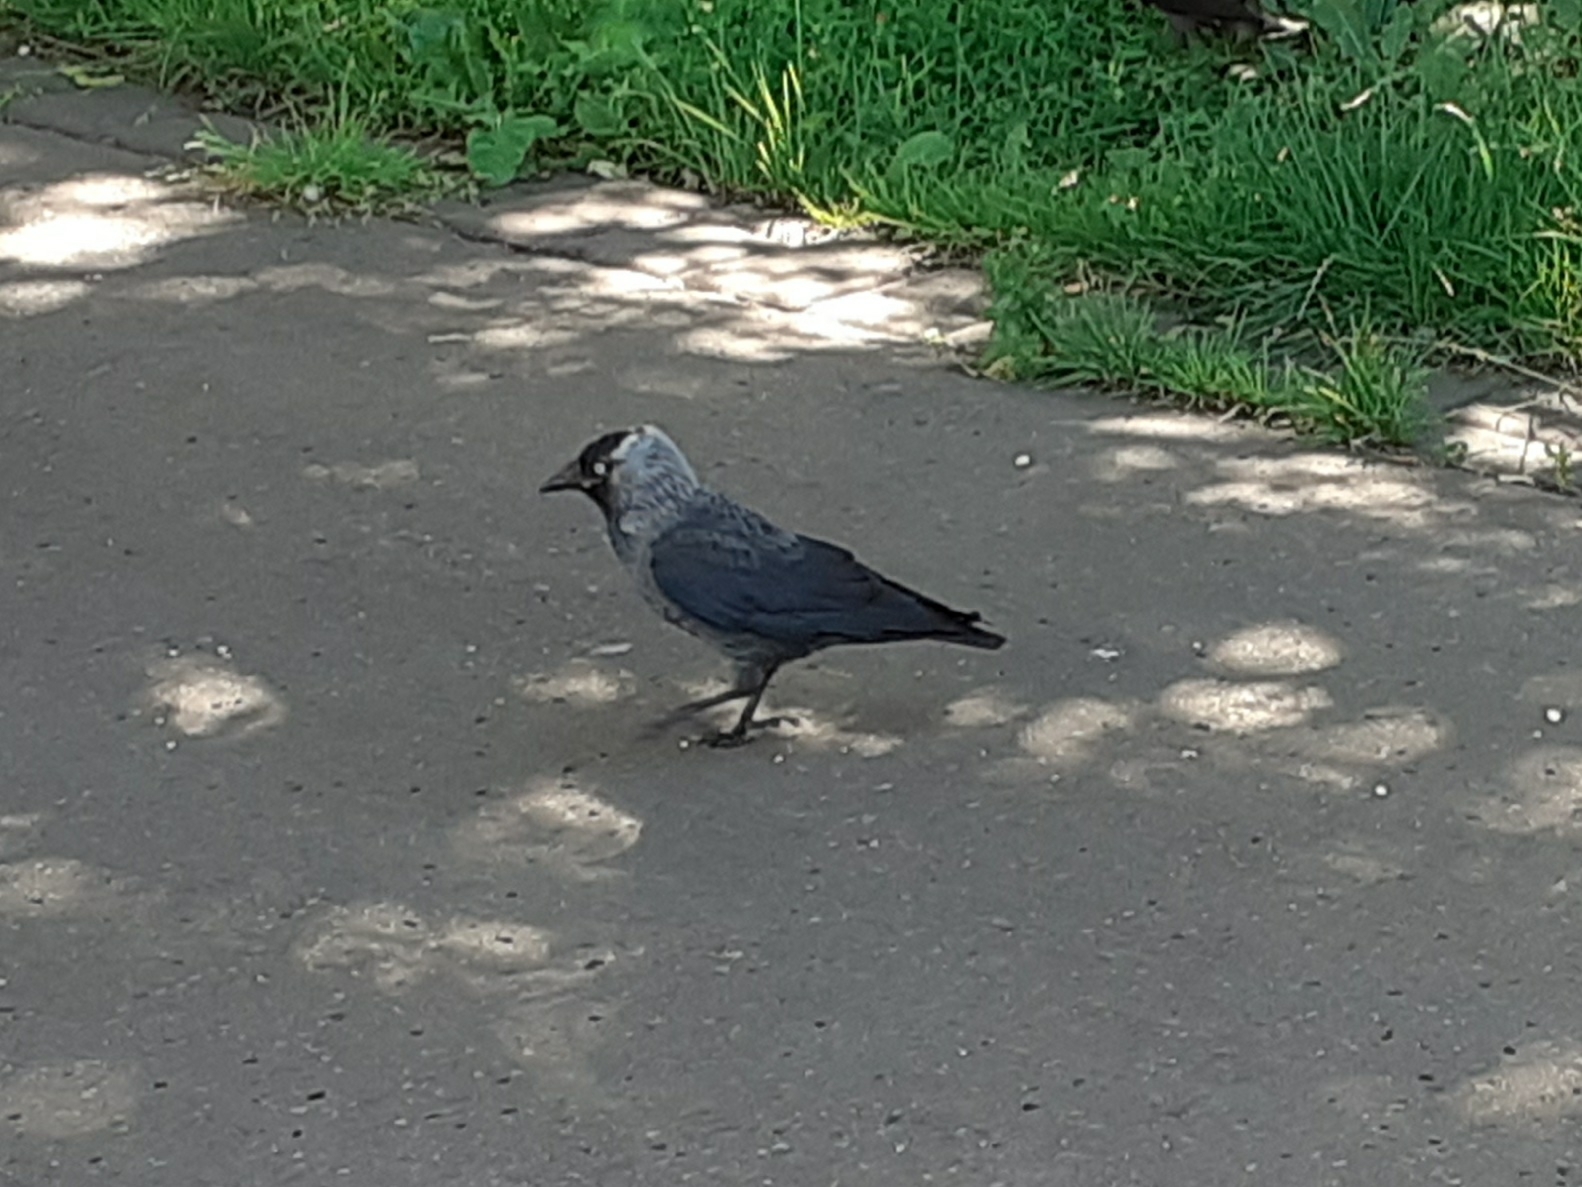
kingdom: Animalia
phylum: Chordata
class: Aves
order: Passeriformes
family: Corvidae
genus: Coloeus
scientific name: Coloeus monedula
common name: Western jackdaw
